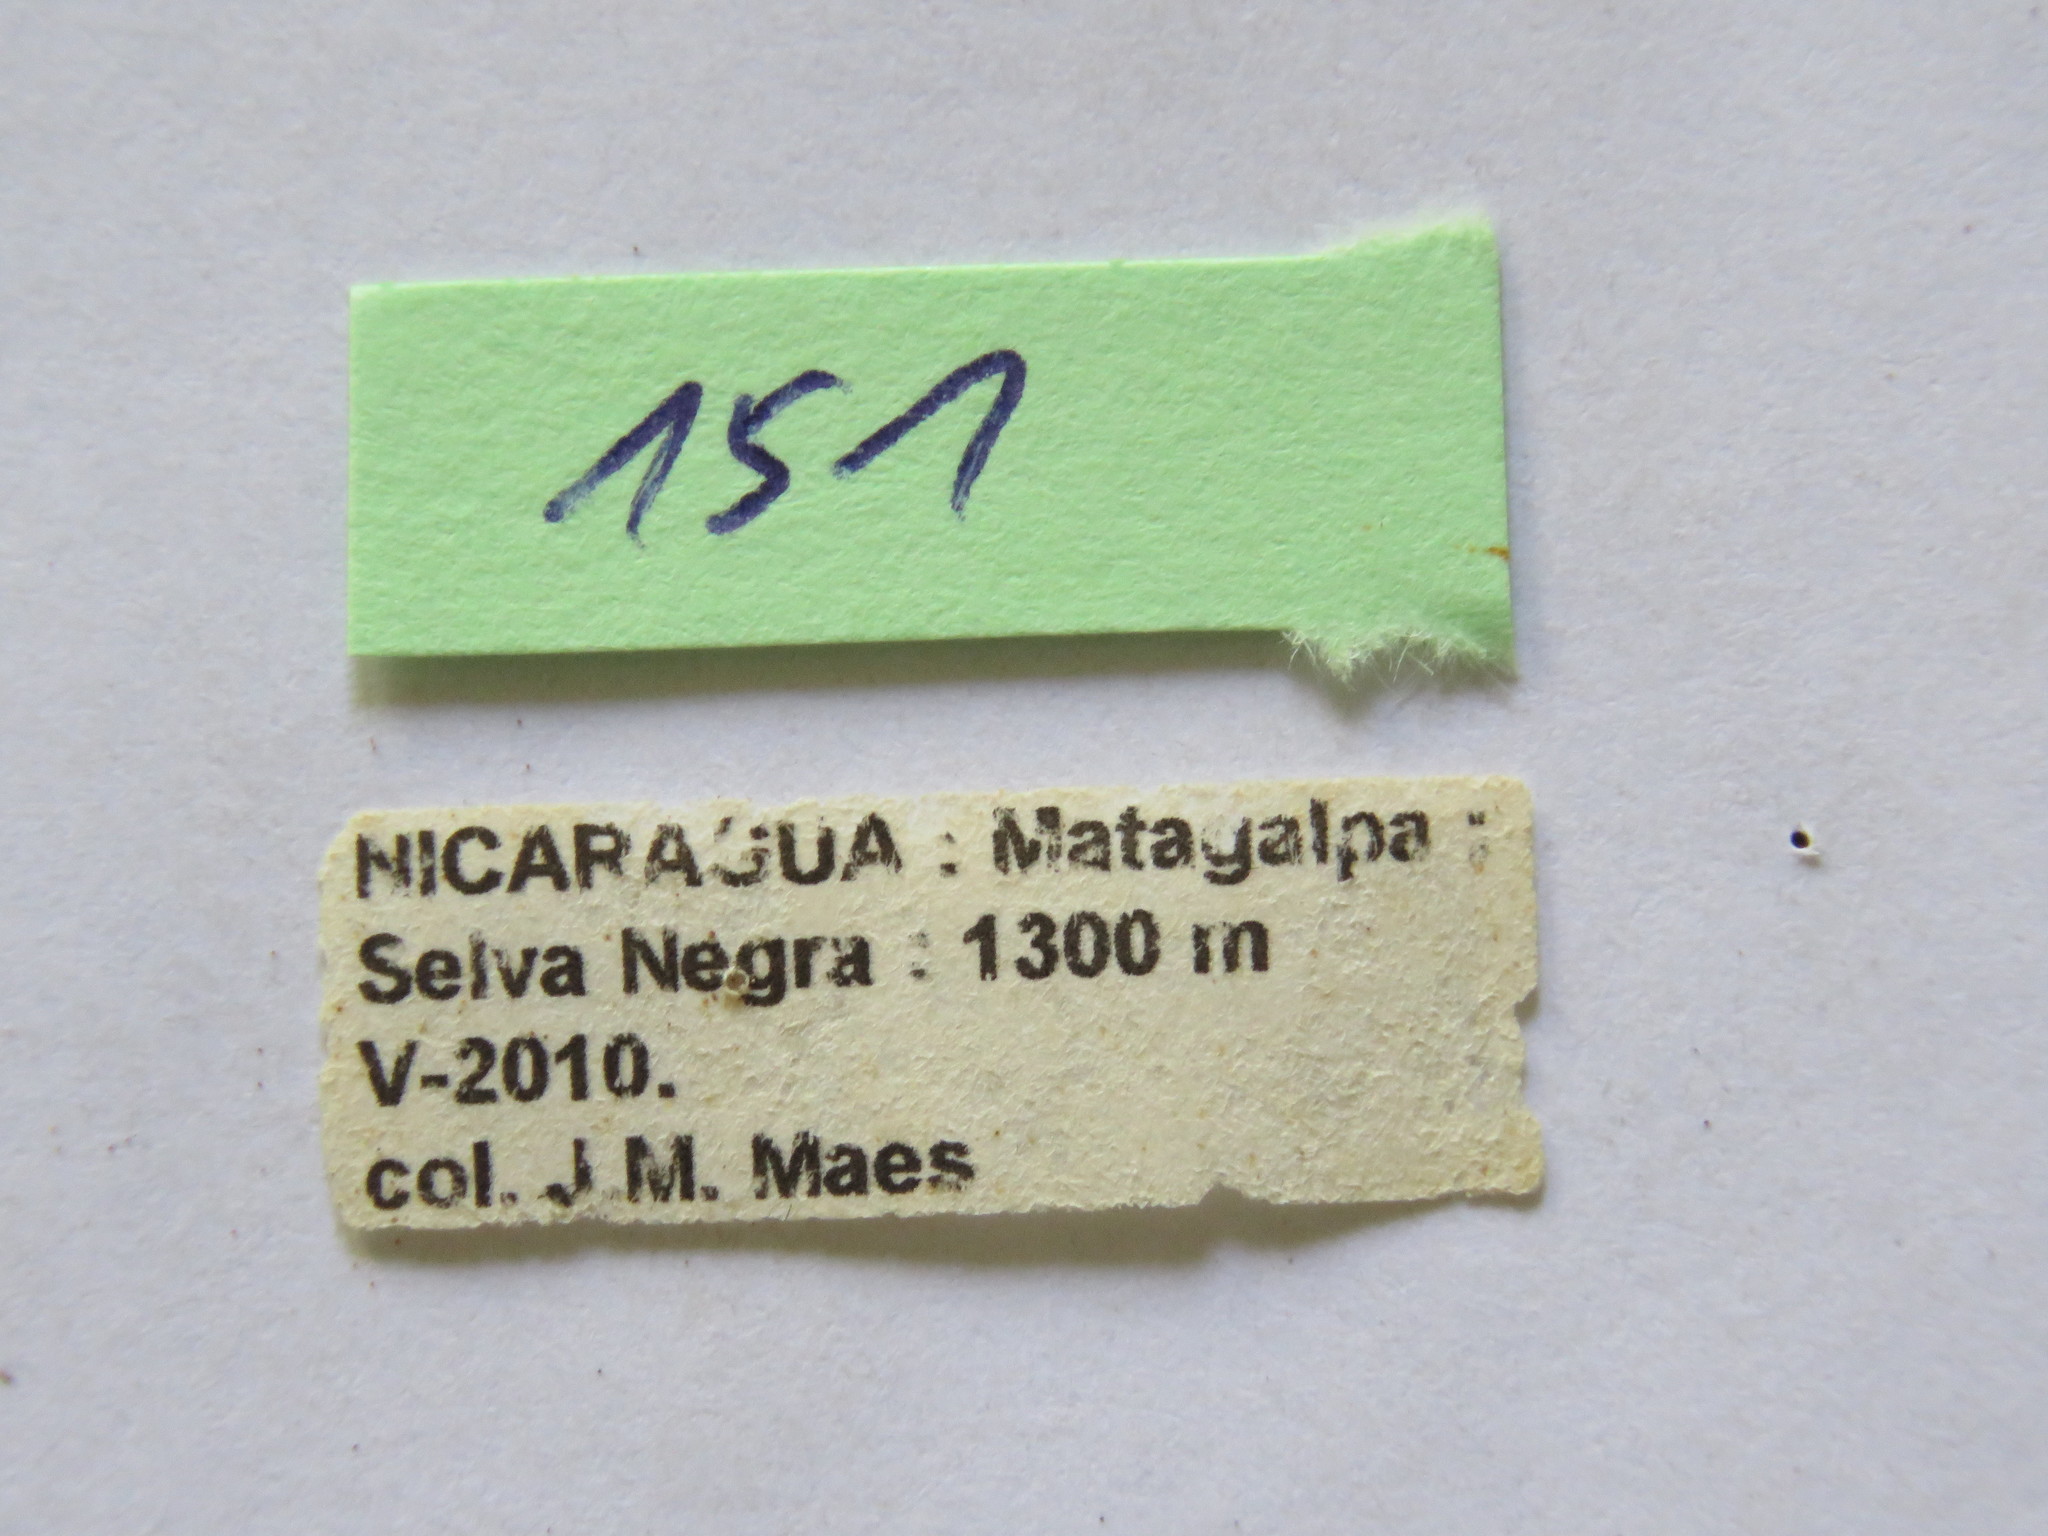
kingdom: Animalia
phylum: Arthropoda
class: Insecta
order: Hemiptera
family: Coreidae
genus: Thasus
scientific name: Thasus
